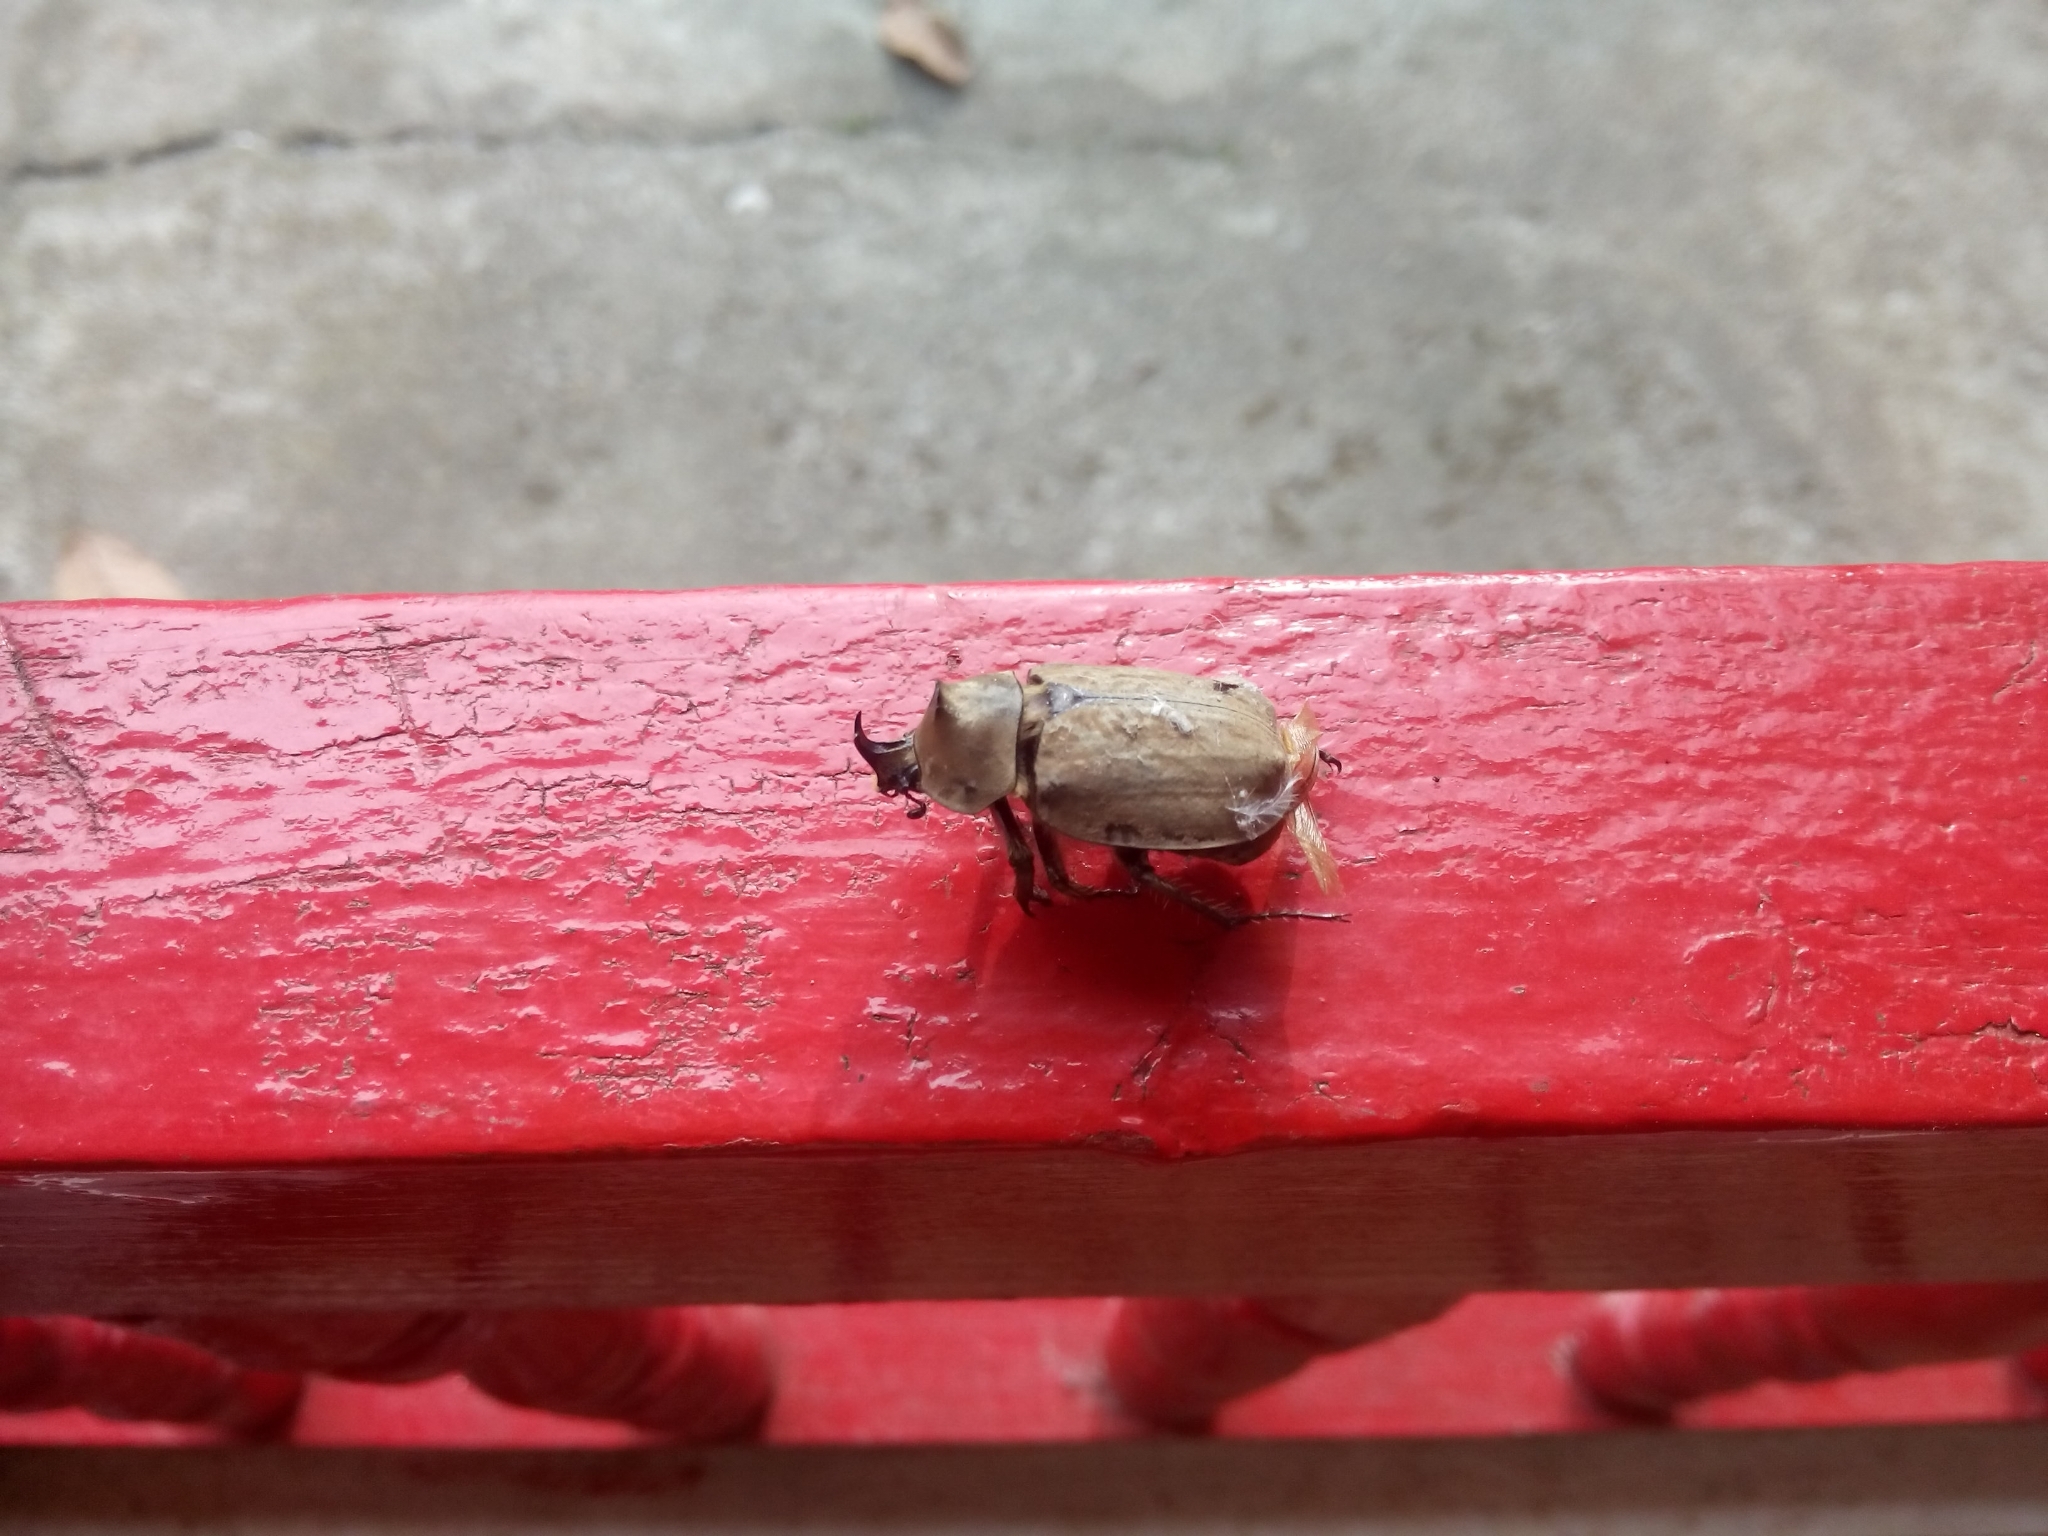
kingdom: Animalia
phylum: Arthropoda
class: Insecta
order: Coleoptera
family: Scarabaeidae
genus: Lycomedes
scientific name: Lycomedes hirtipes
